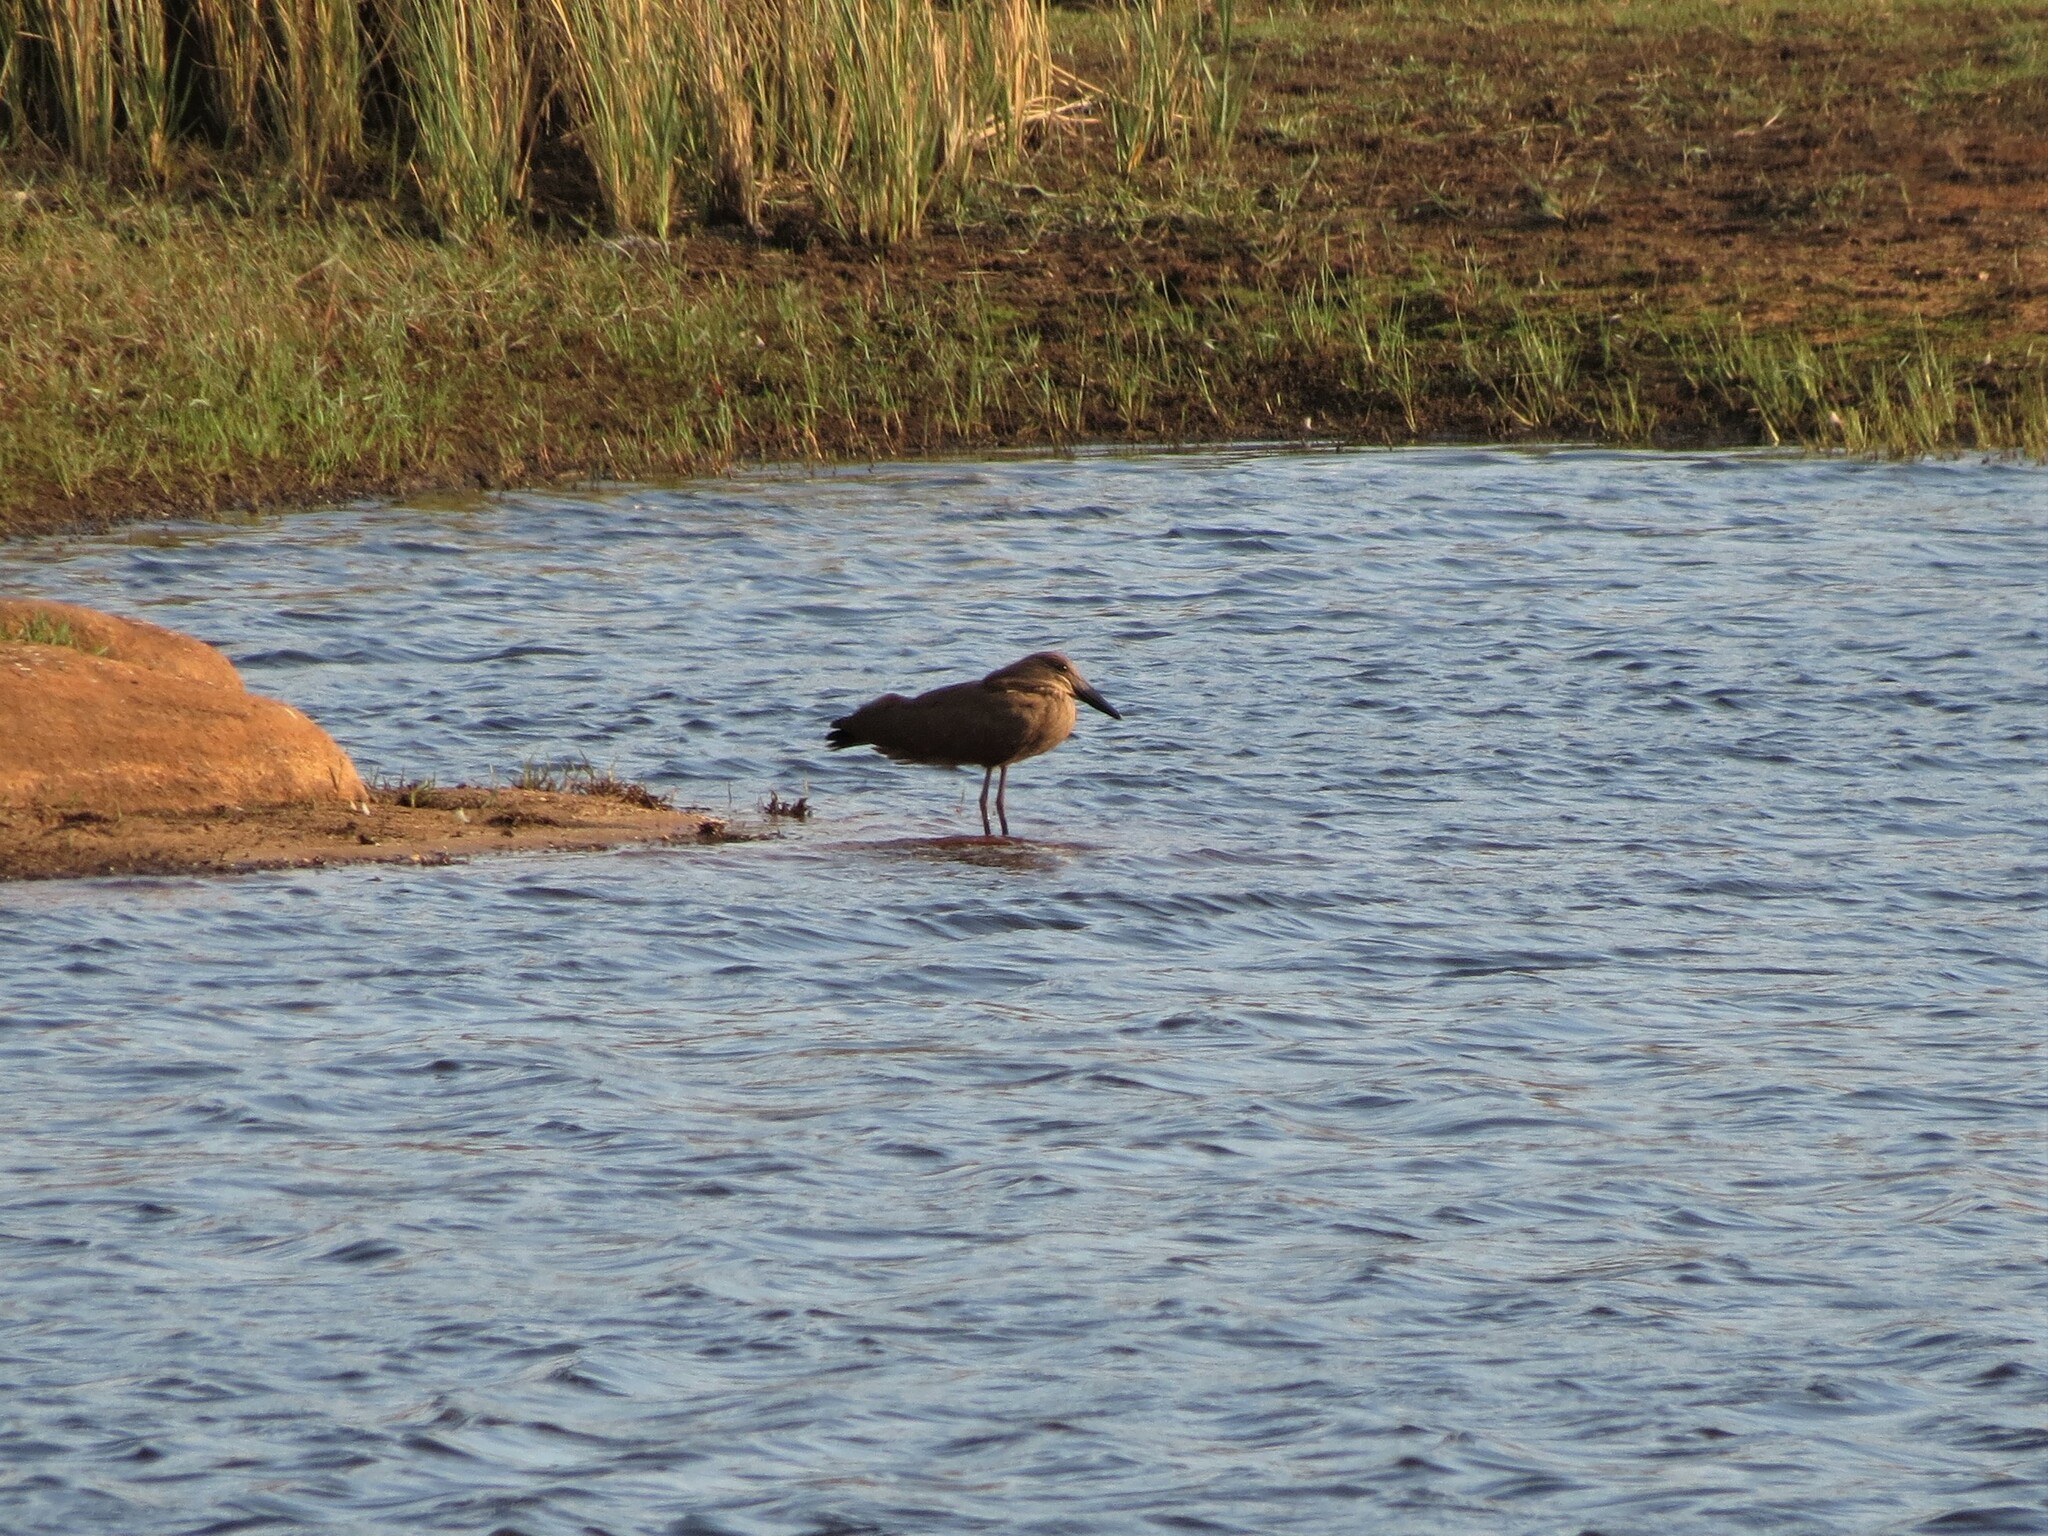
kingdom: Animalia
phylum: Chordata
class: Aves
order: Pelecaniformes
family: Scopidae
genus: Scopus
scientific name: Scopus umbretta
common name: Hamerkop
